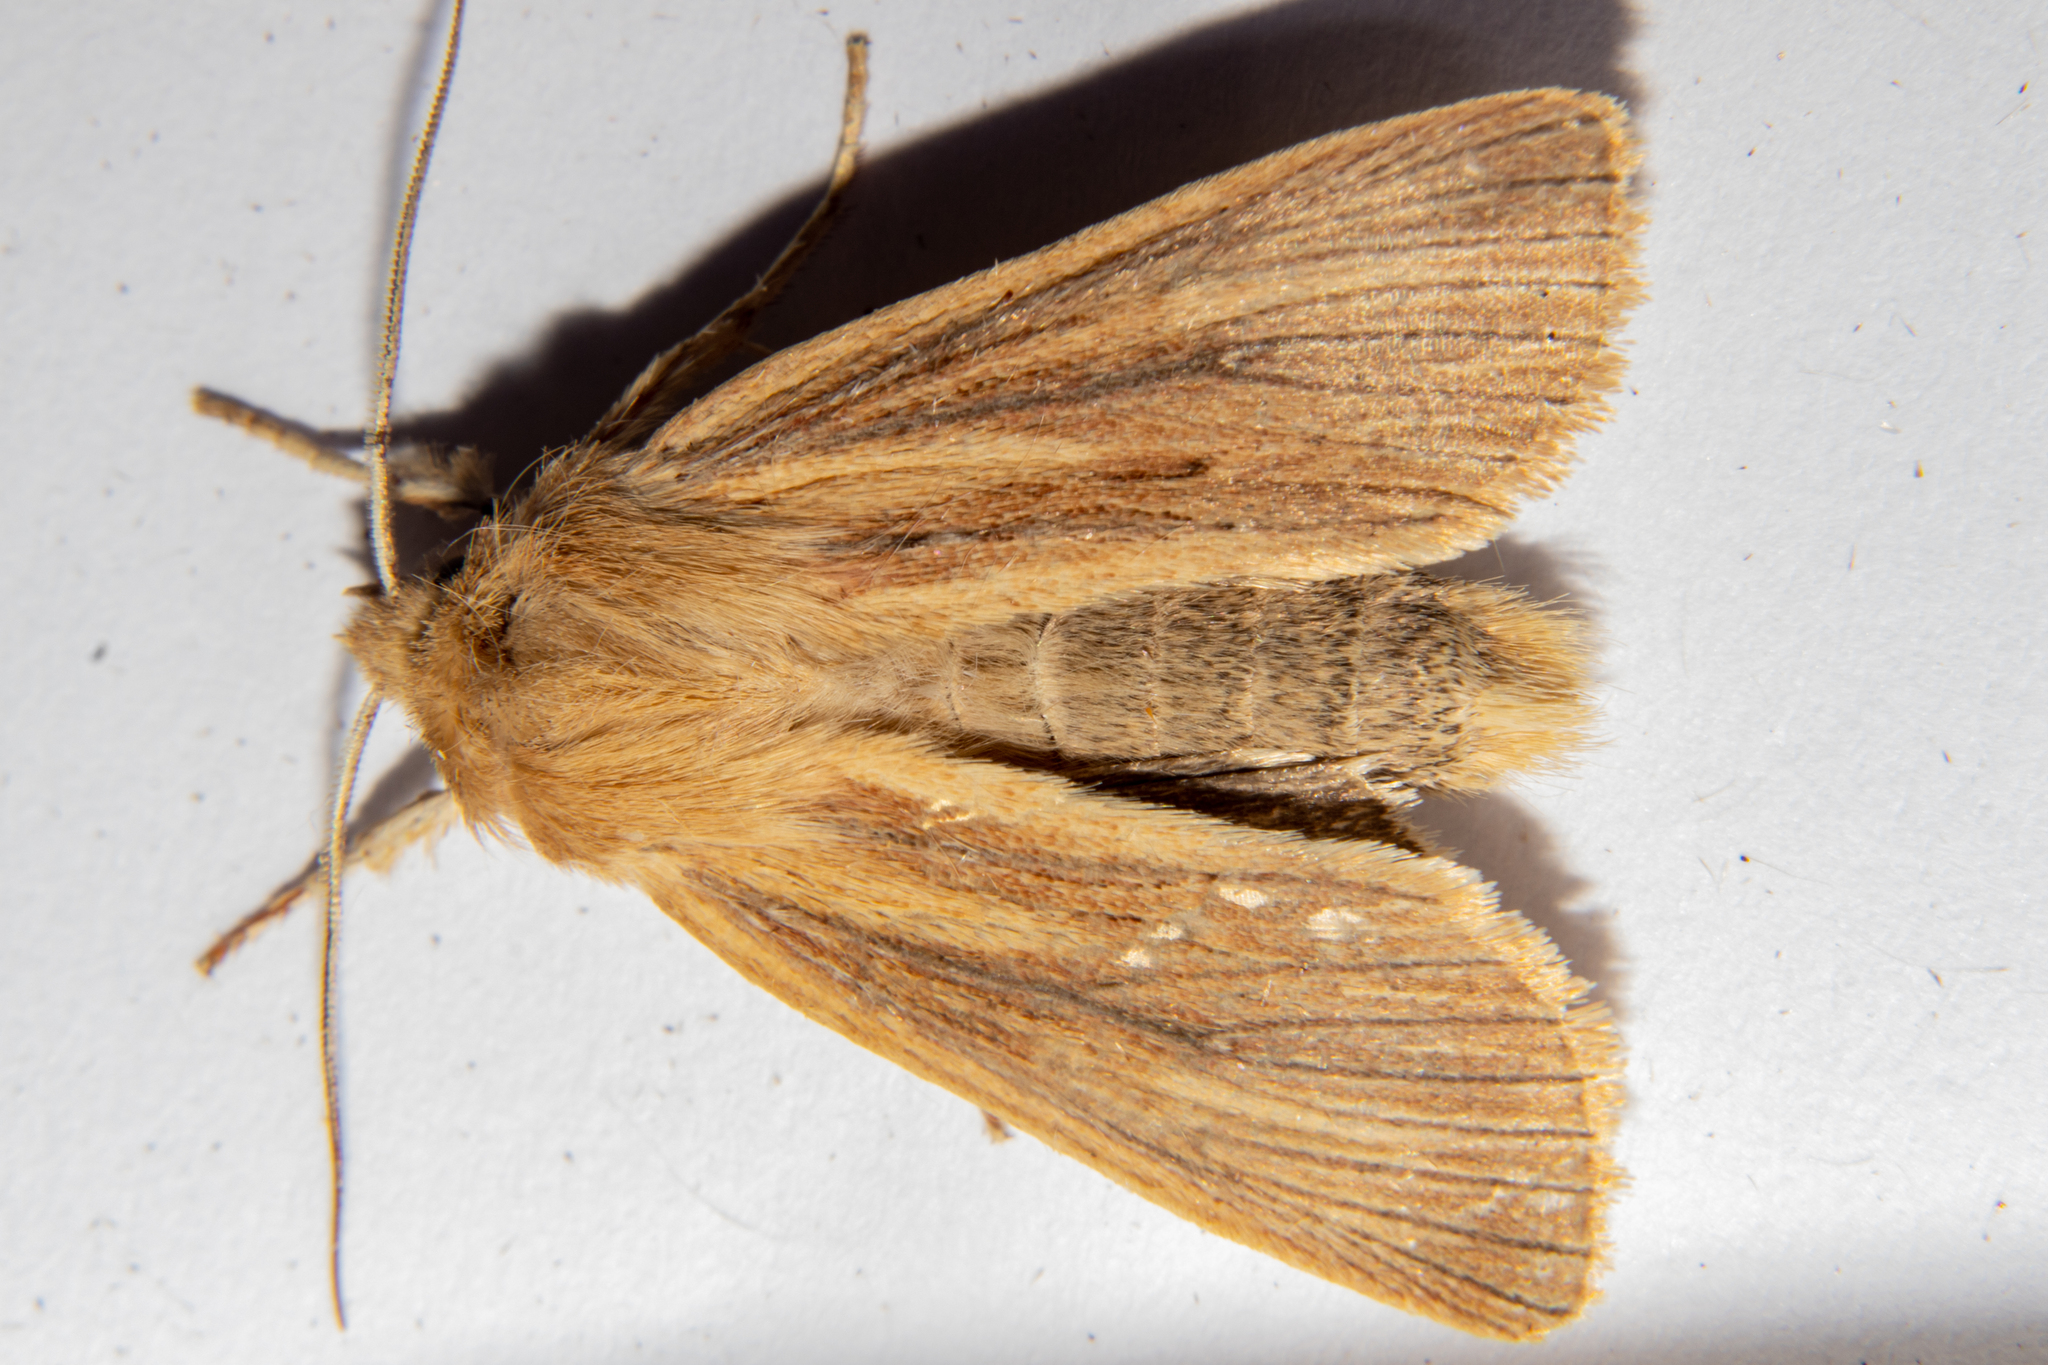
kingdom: Animalia
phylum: Arthropoda
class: Insecta
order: Lepidoptera
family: Noctuidae
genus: Ichneutica
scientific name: Ichneutica arotis
